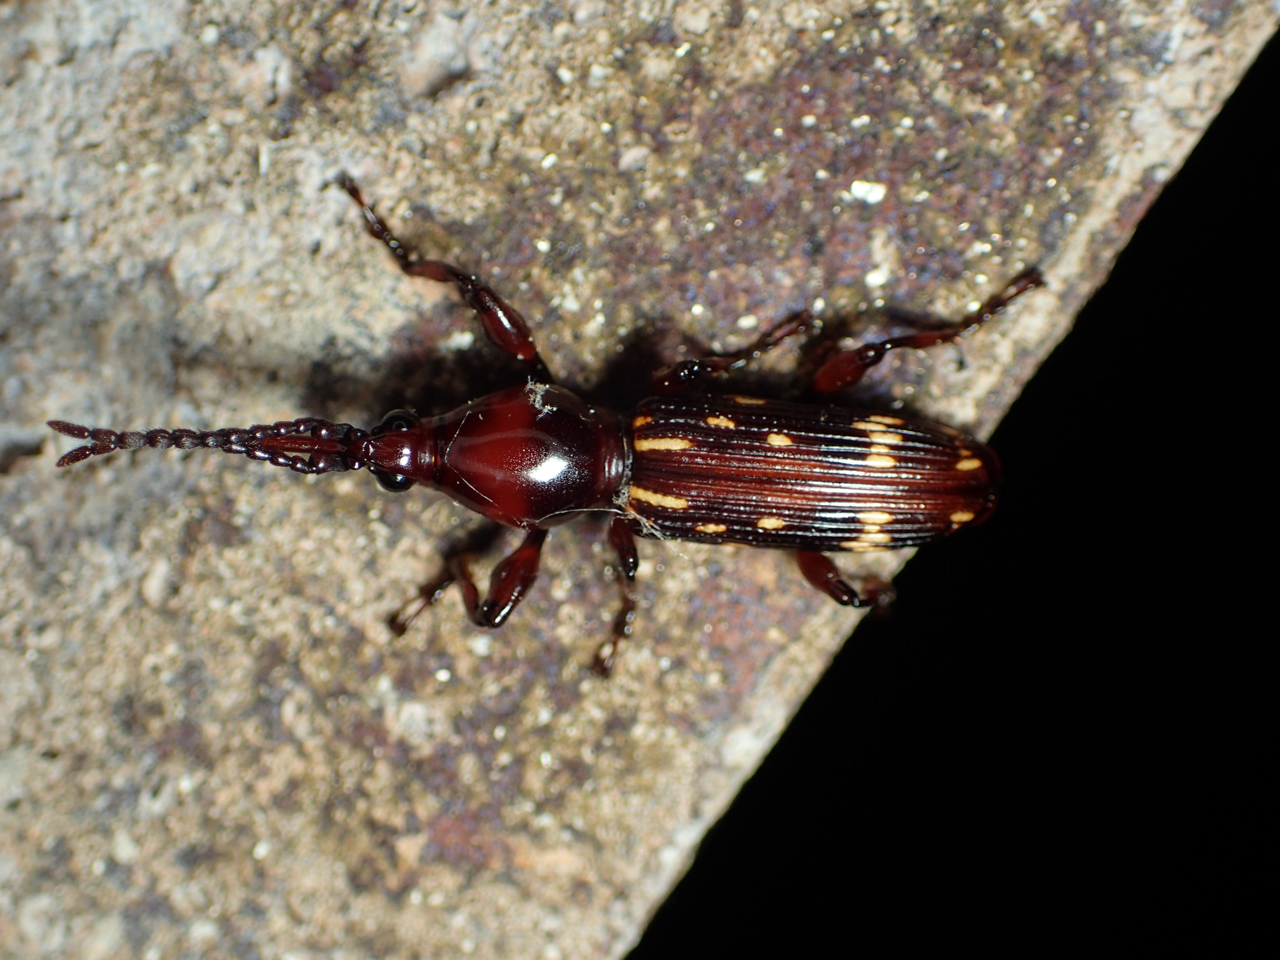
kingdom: Animalia
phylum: Arthropoda
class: Insecta
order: Coleoptera
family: Brentidae
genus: Arrenodes
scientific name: Arrenodes minutus
